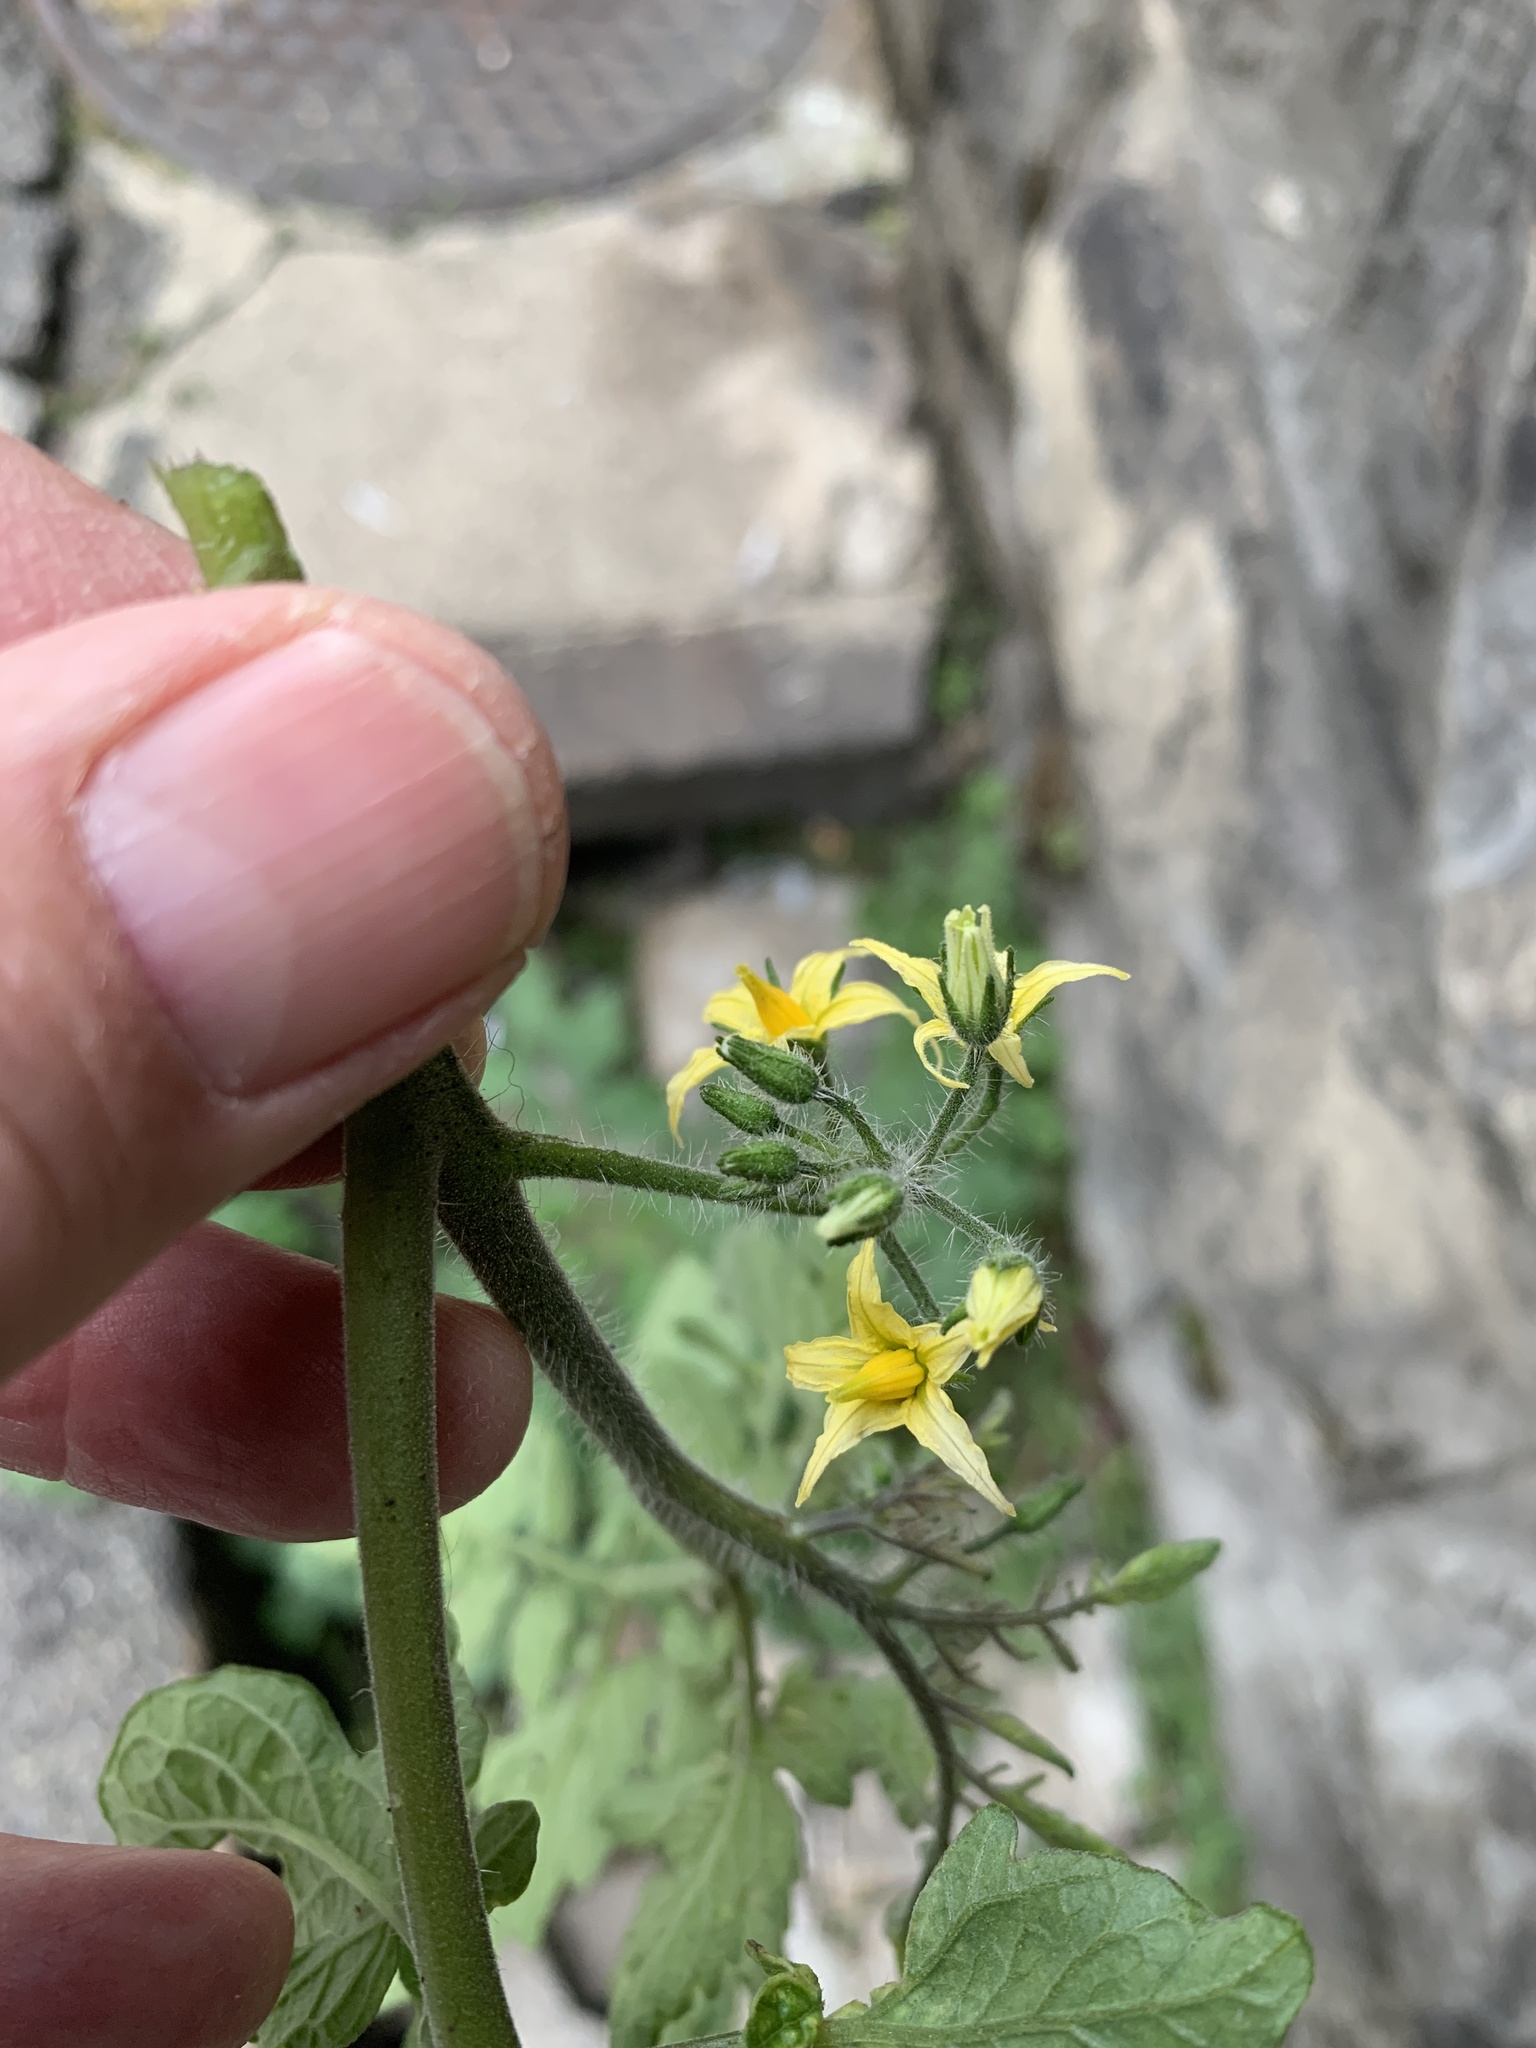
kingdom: Plantae
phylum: Tracheophyta
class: Magnoliopsida
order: Solanales
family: Solanaceae
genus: Solanum
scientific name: Solanum lycopersicum
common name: Garden tomato
